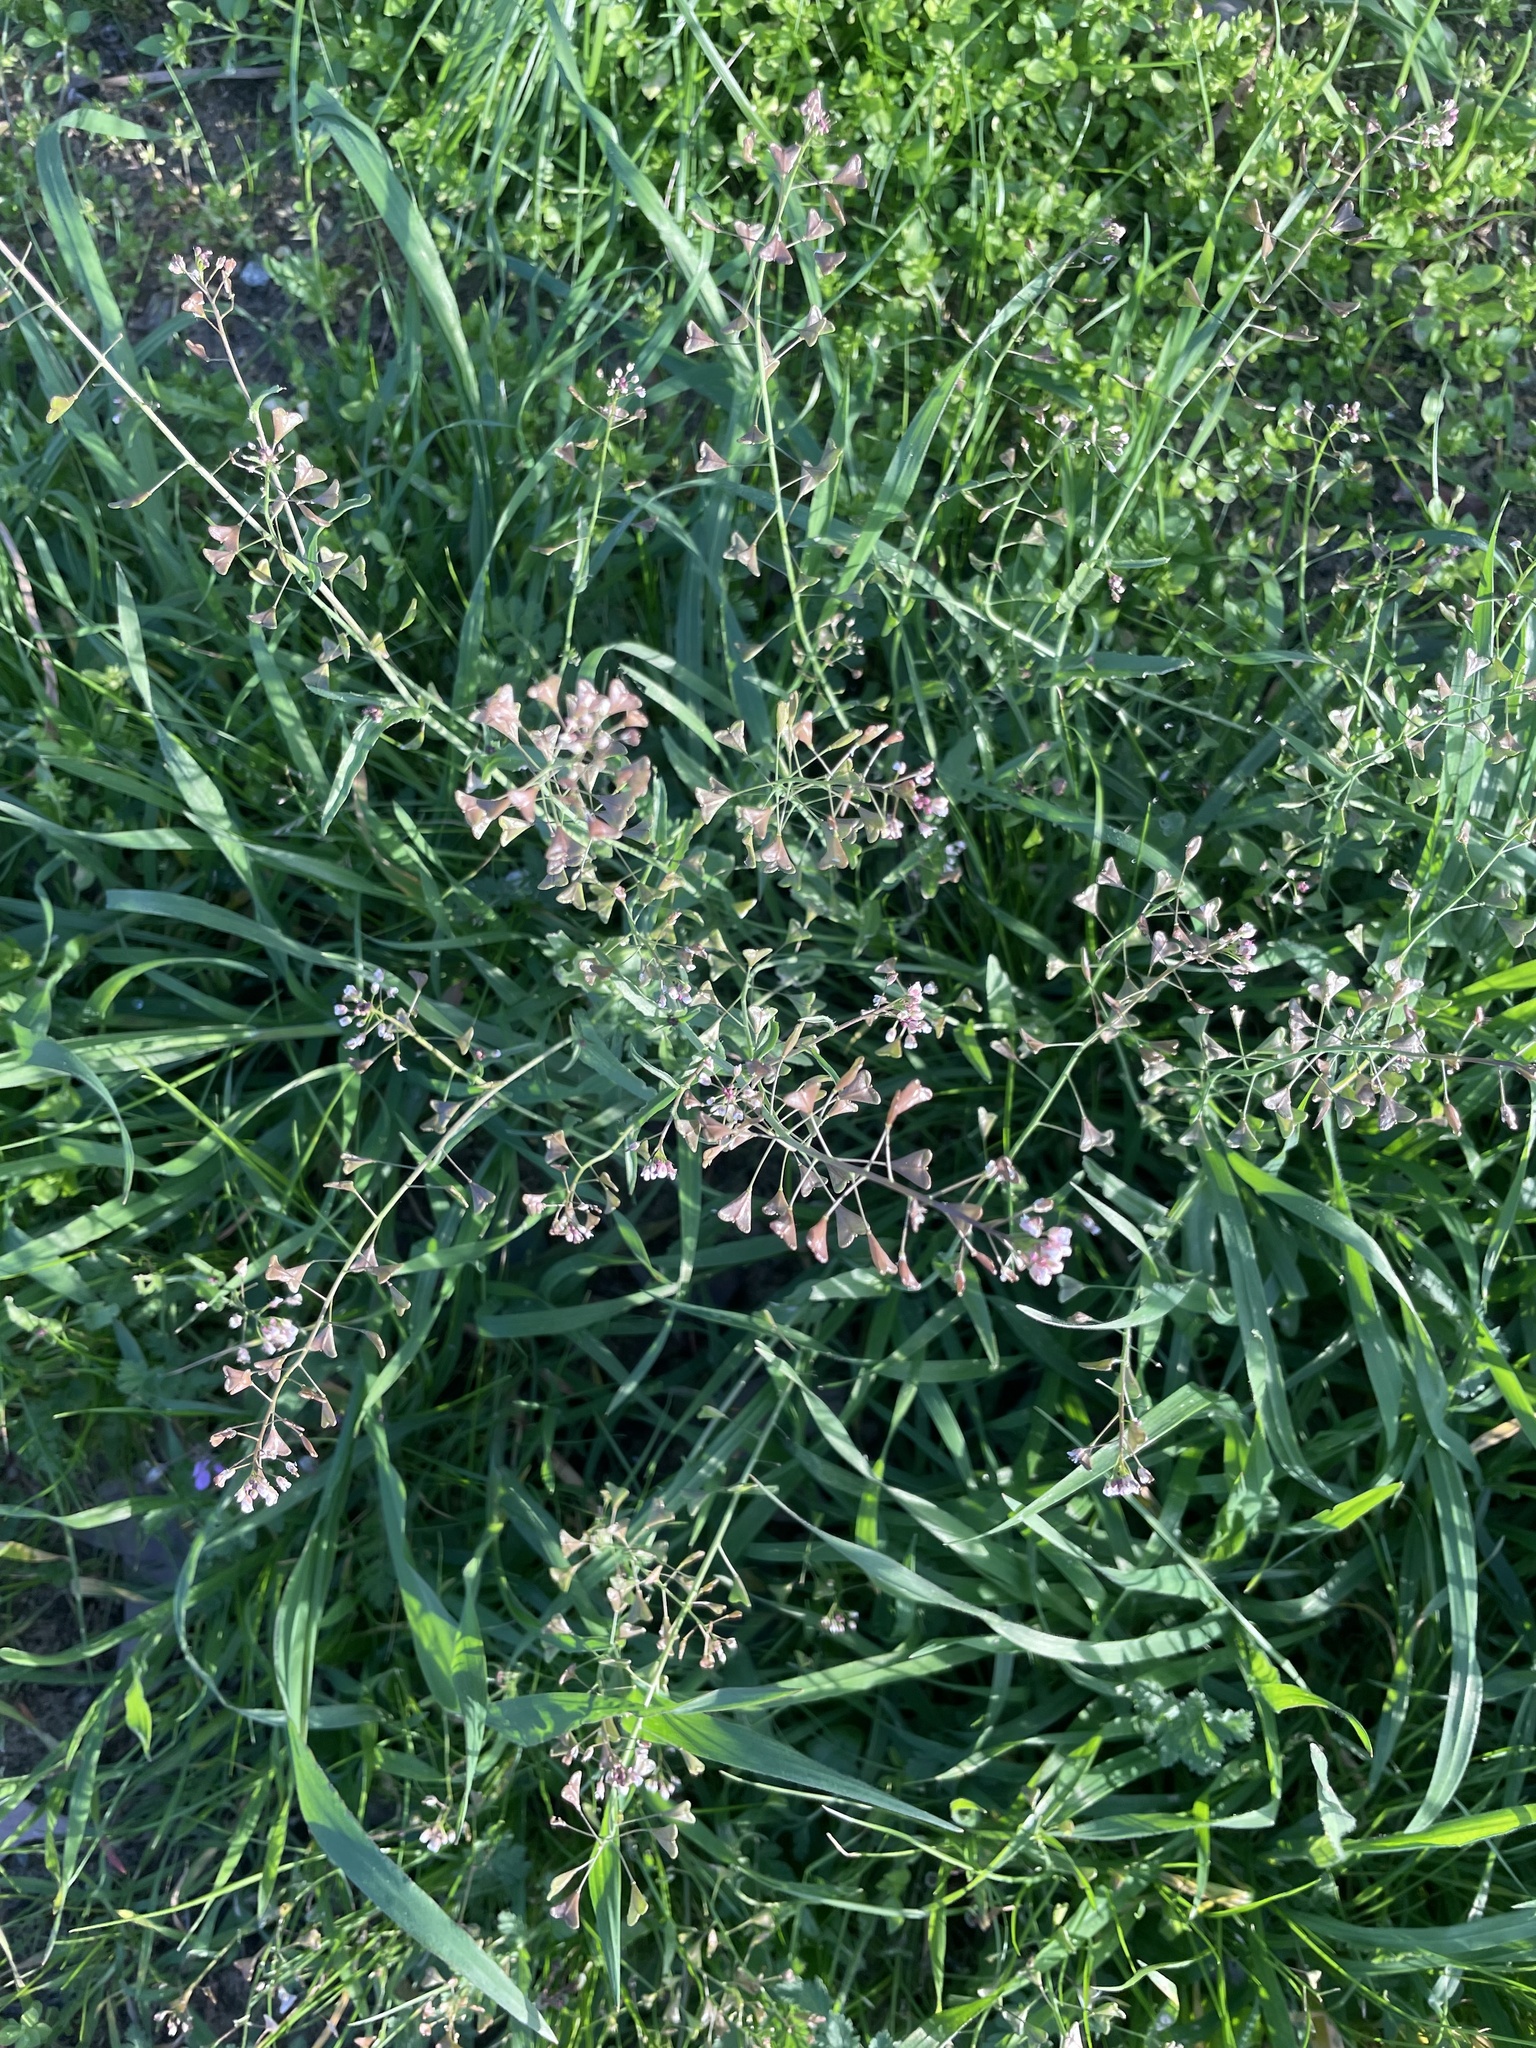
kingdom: Plantae
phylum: Tracheophyta
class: Magnoliopsida
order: Brassicales
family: Brassicaceae
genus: Capsella
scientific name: Capsella bursa-pastoris
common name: Shepherd's purse
